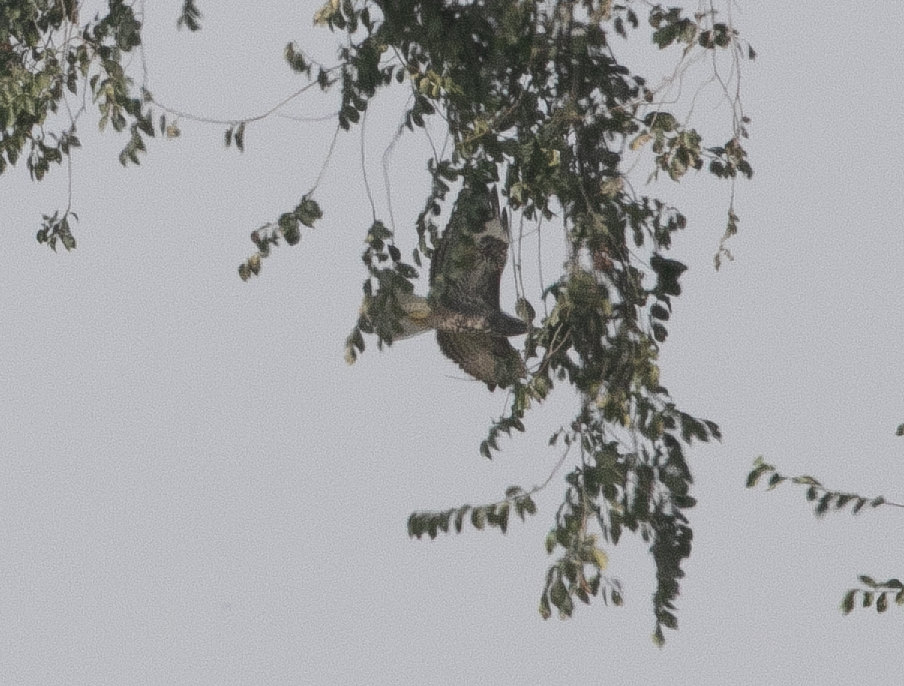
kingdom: Animalia
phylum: Chordata
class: Aves
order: Accipitriformes
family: Accipitridae
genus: Buteo
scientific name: Buteo buteo
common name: Common buzzard
